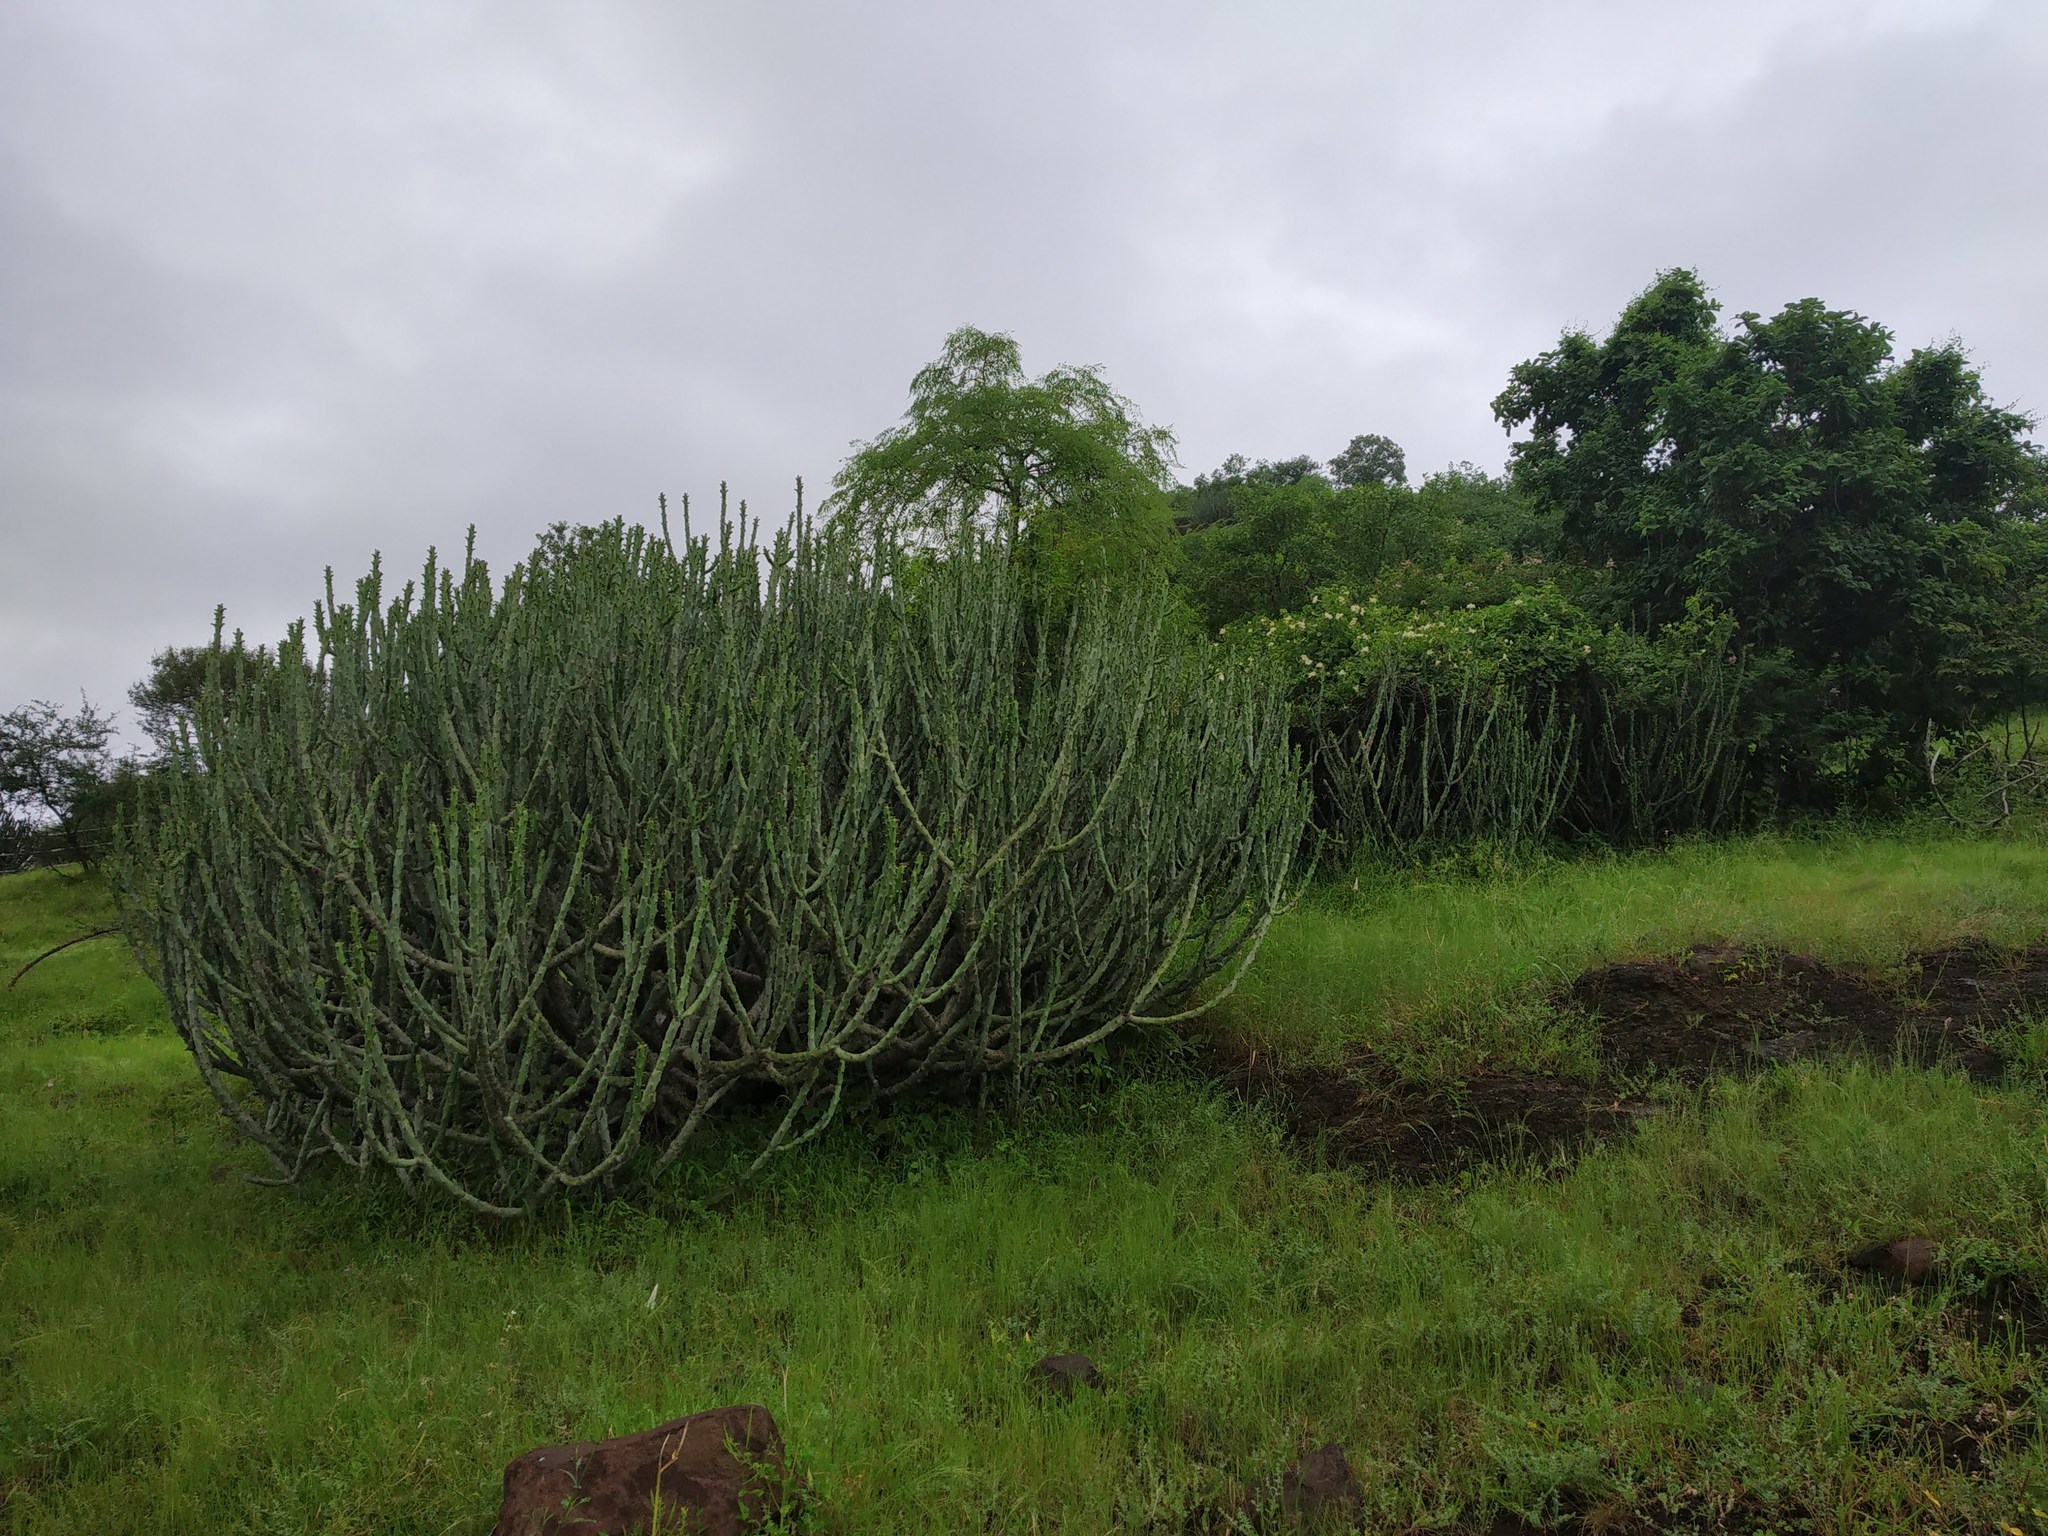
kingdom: Plantae
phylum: Tracheophyta
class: Magnoliopsida
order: Malpighiales
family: Euphorbiaceae
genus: Euphorbia
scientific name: Euphorbia caducifolia
